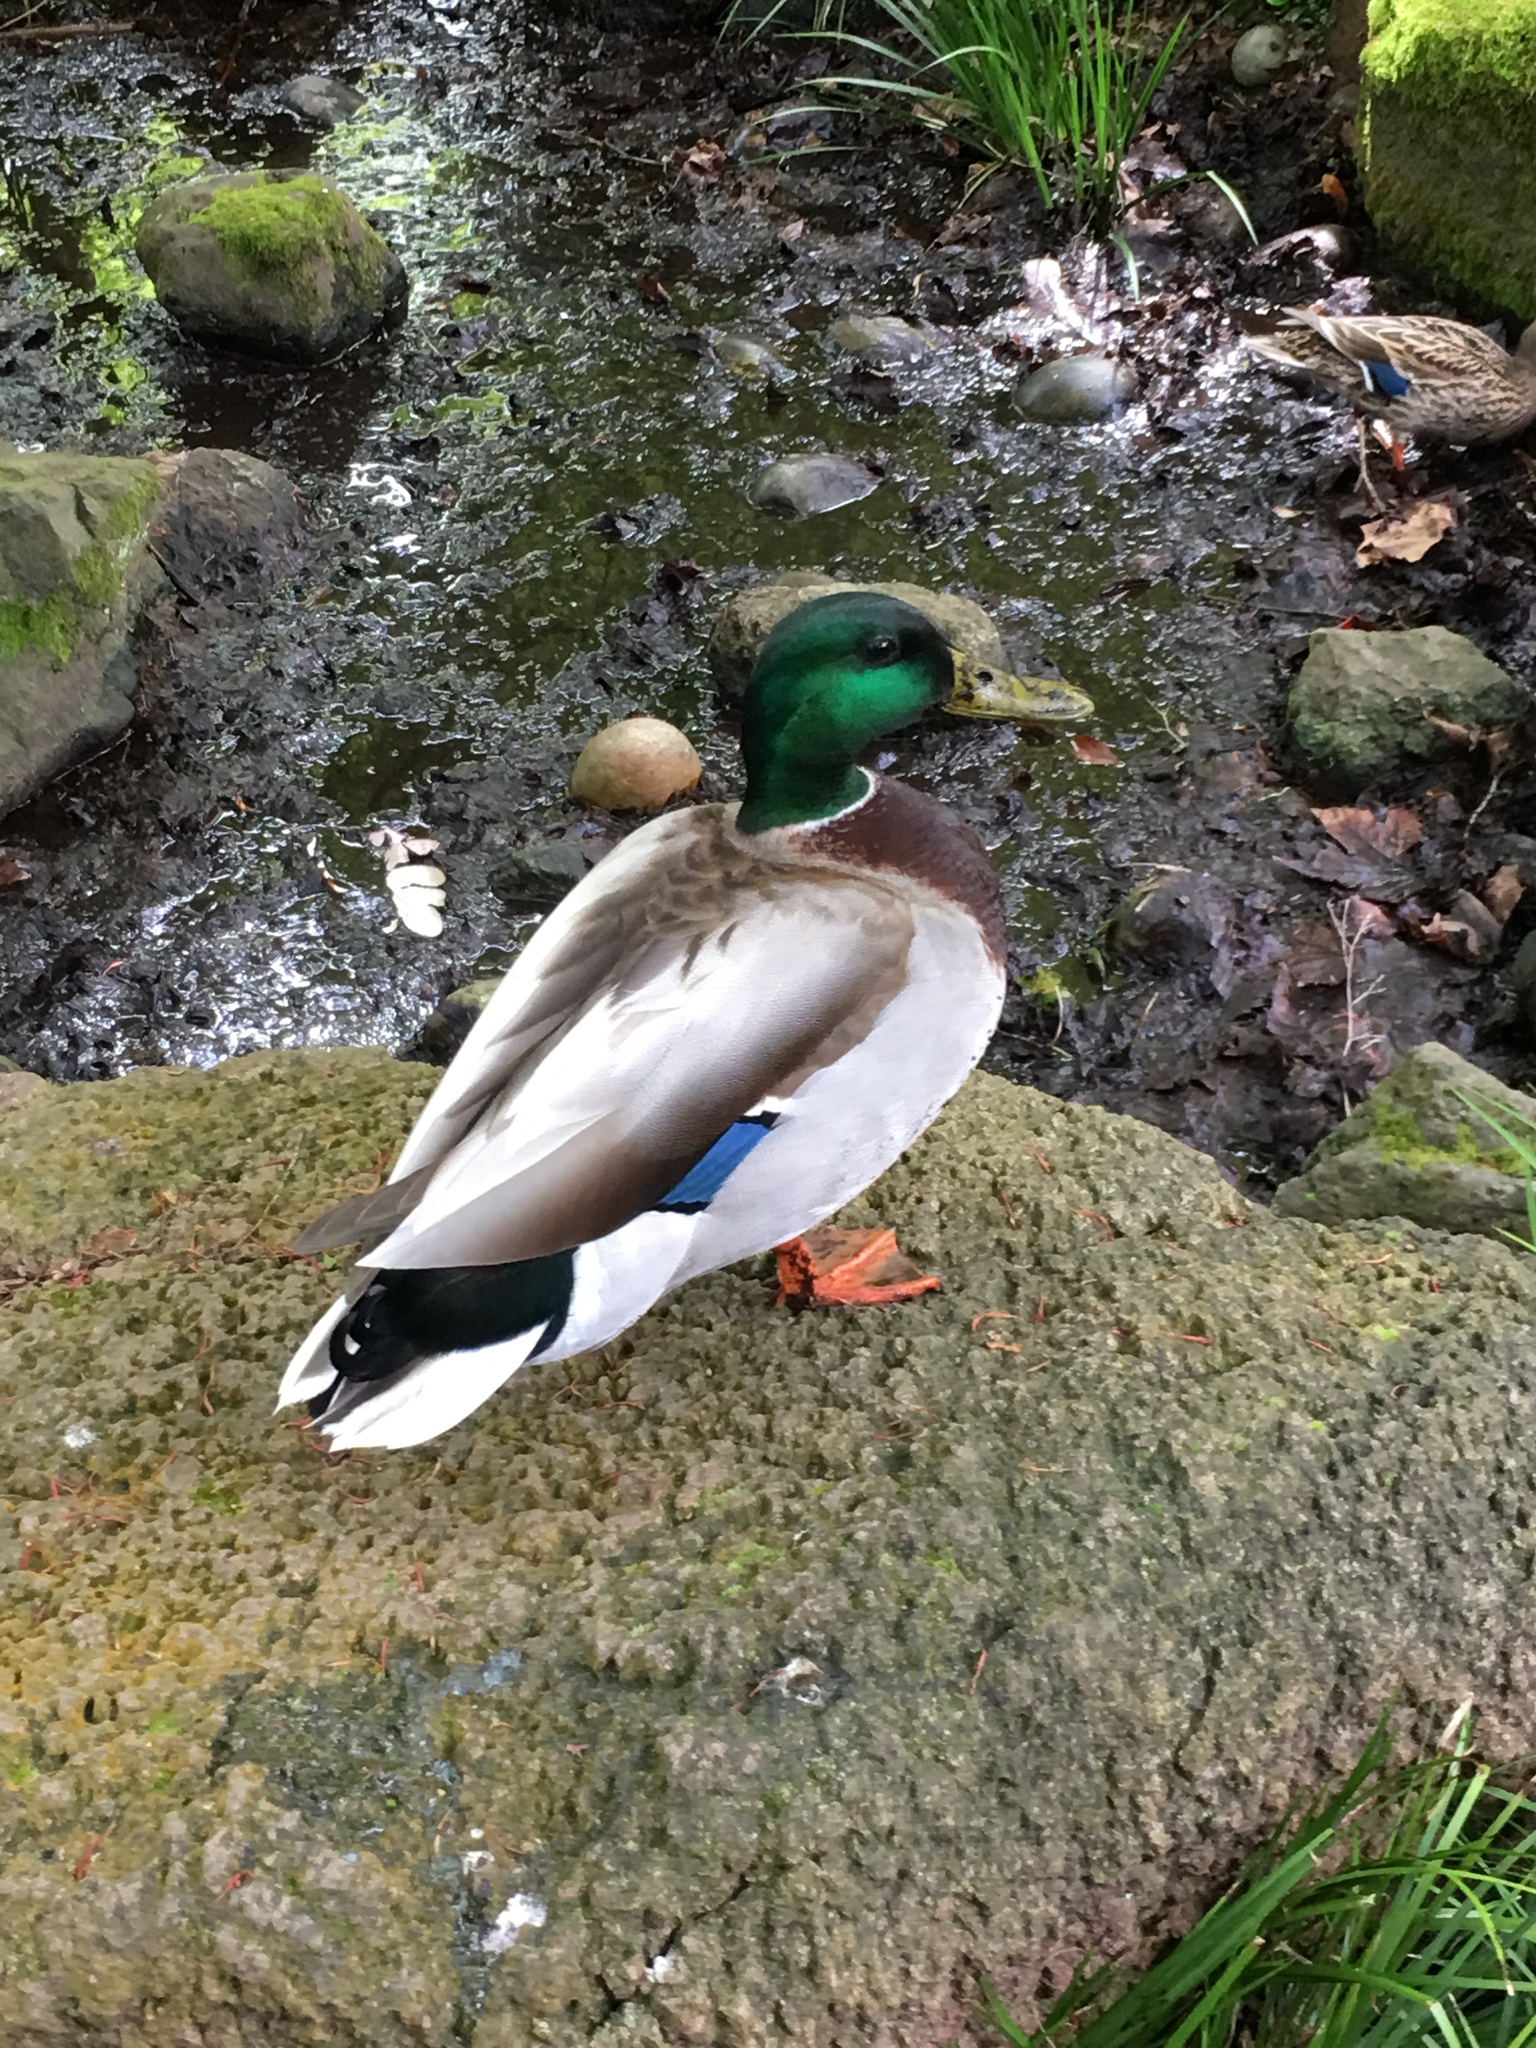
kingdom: Animalia
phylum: Chordata
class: Aves
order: Anseriformes
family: Anatidae
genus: Anas
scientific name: Anas platyrhynchos
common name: Mallard
